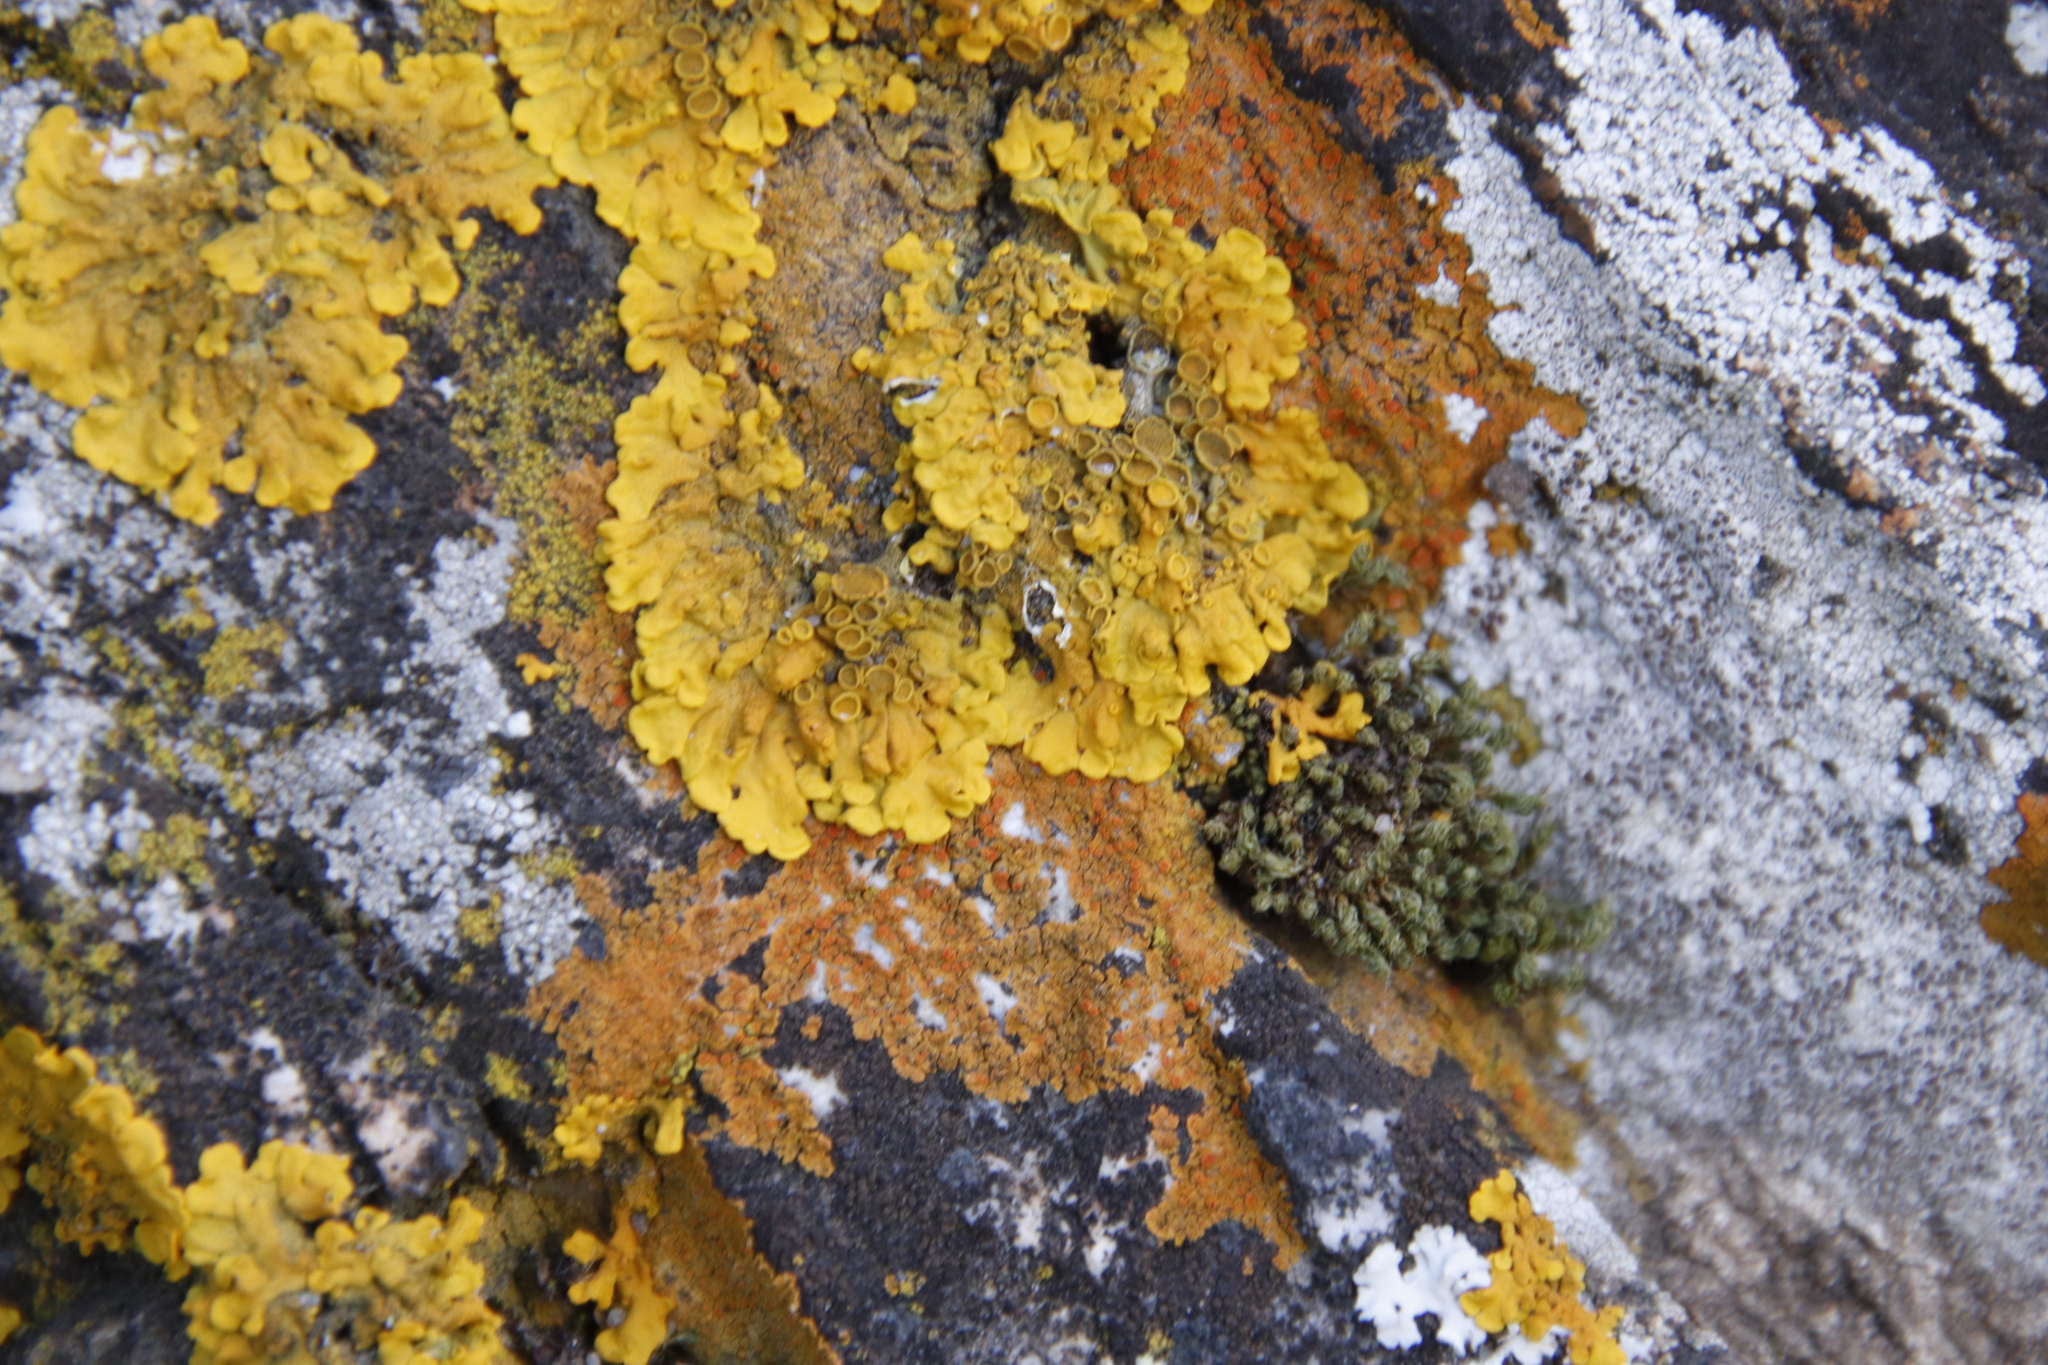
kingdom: Fungi
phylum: Ascomycota
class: Lecanoromycetes
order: Teloschistales
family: Teloschistaceae
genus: Xanthoria
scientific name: Xanthoria parietina
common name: Common orange lichen
